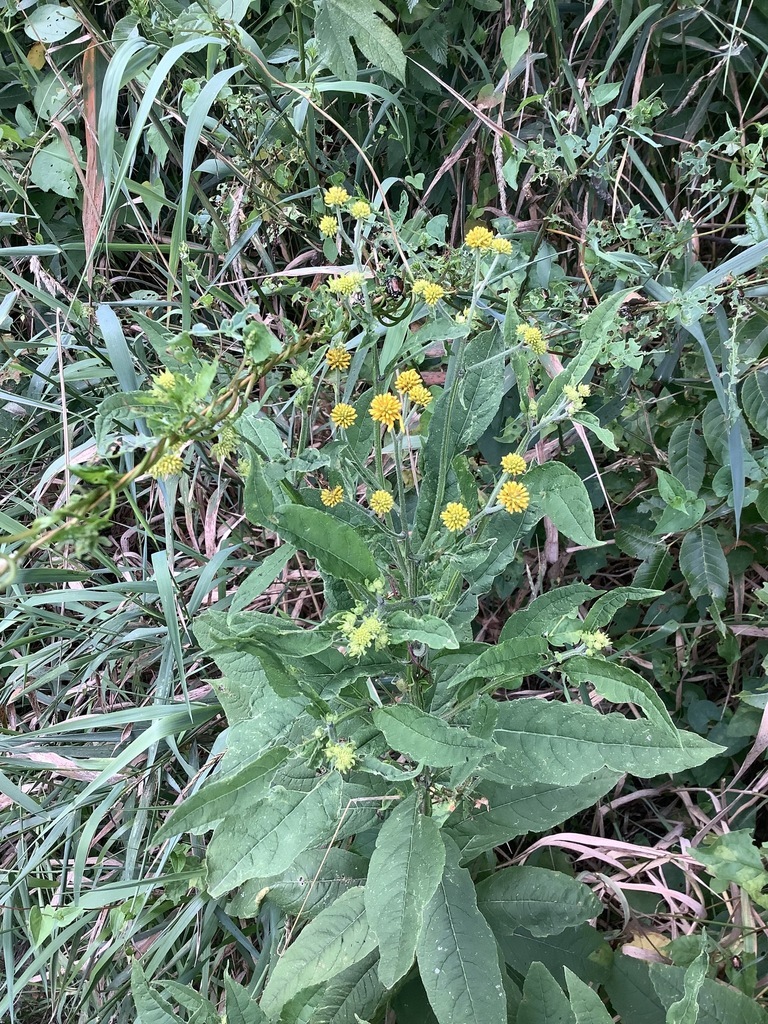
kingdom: Plantae
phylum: Tracheophyta
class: Magnoliopsida
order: Asterales
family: Asteraceae
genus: Verbesina
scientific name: Verbesina alternifolia
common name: Wingstem
